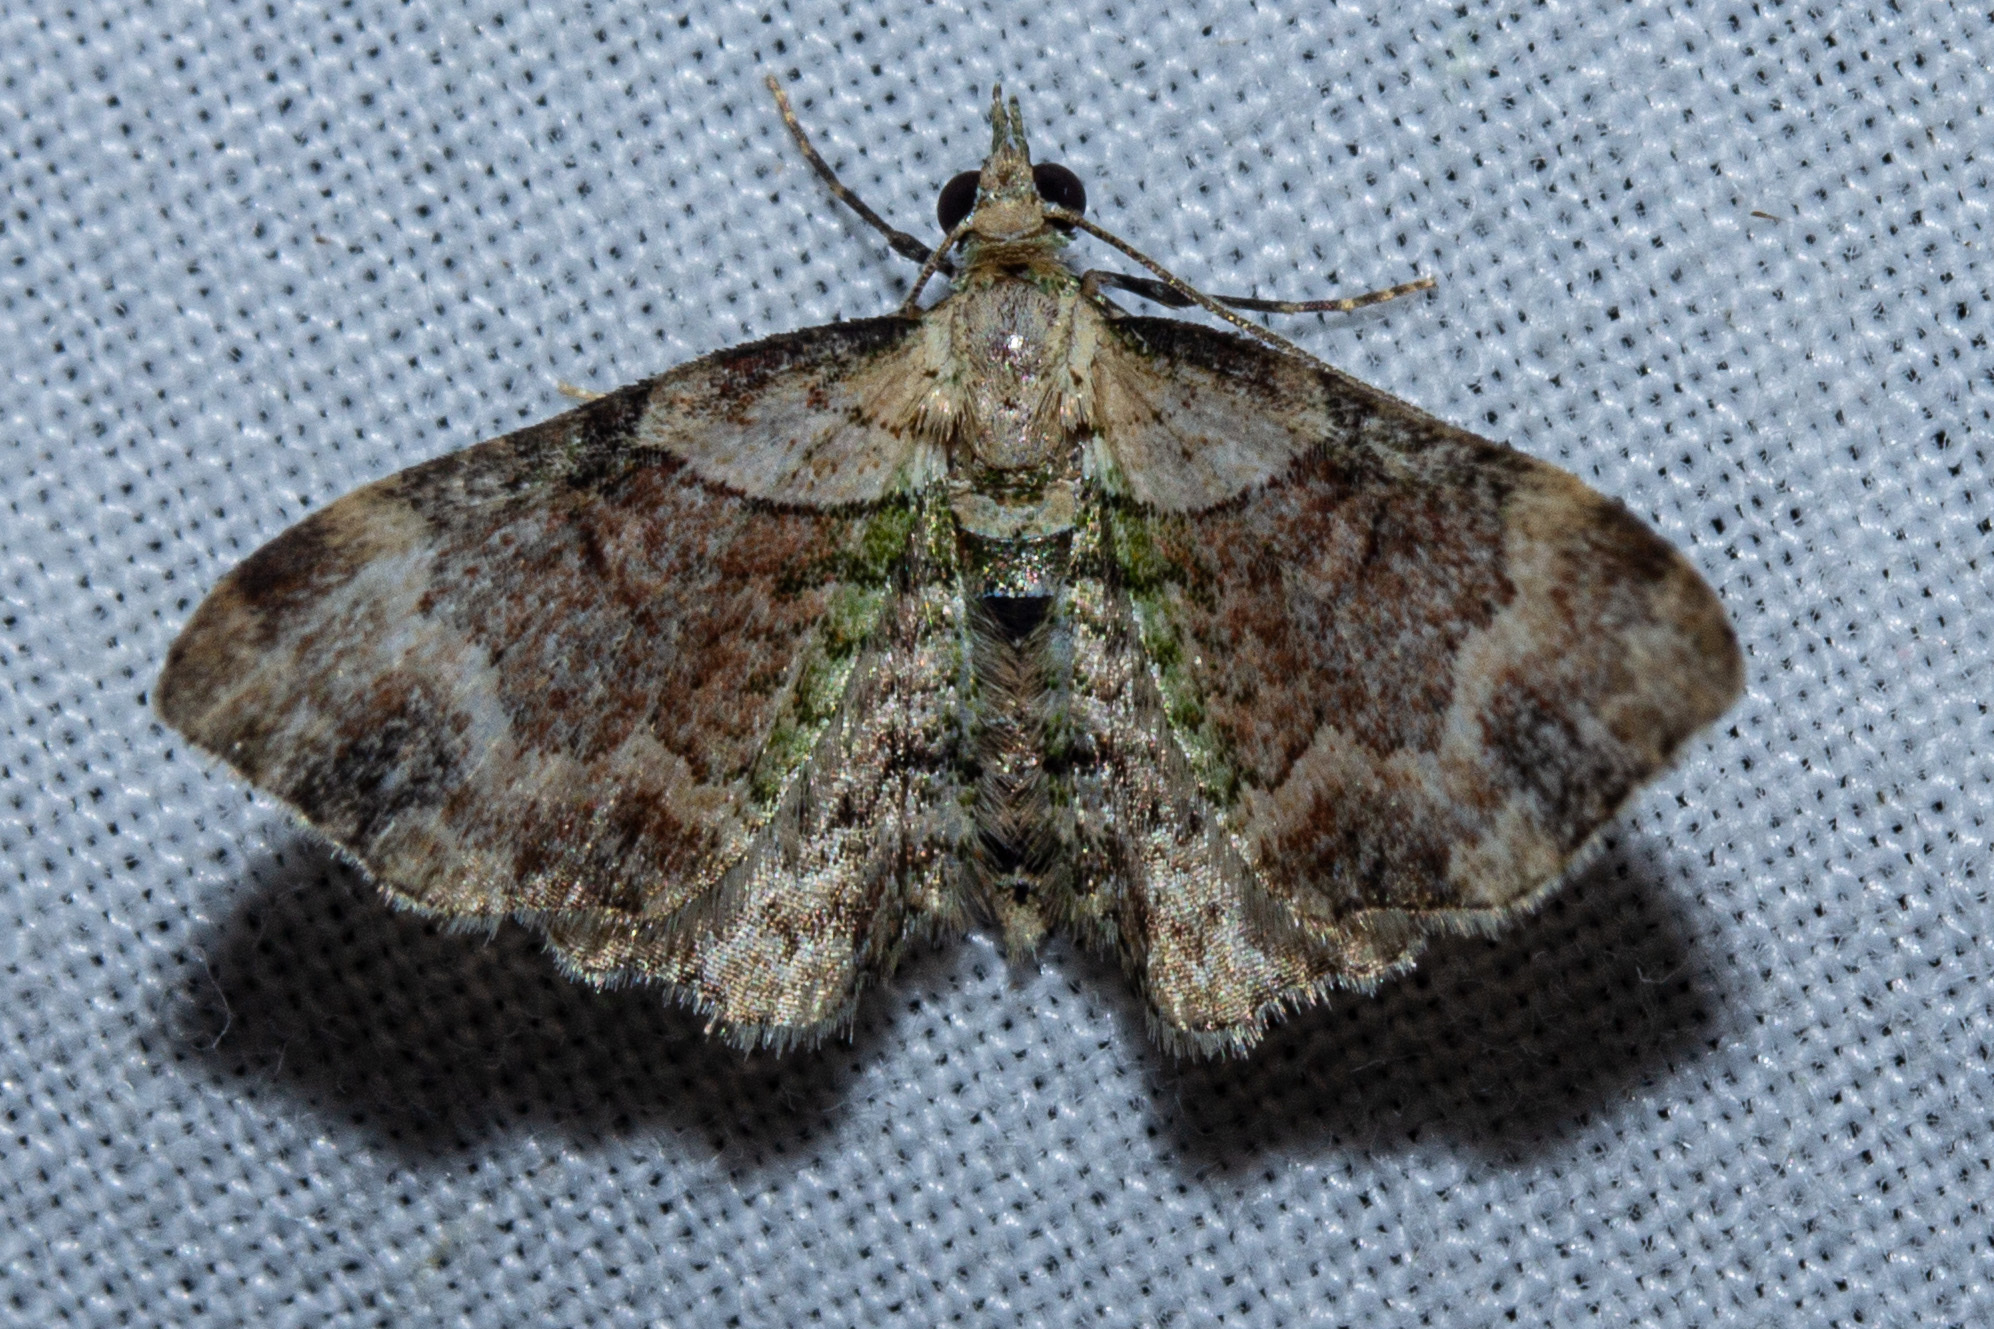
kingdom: Animalia
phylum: Arthropoda
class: Insecta
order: Lepidoptera
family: Geometridae
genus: Chloroclystis
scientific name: Chloroclystis
